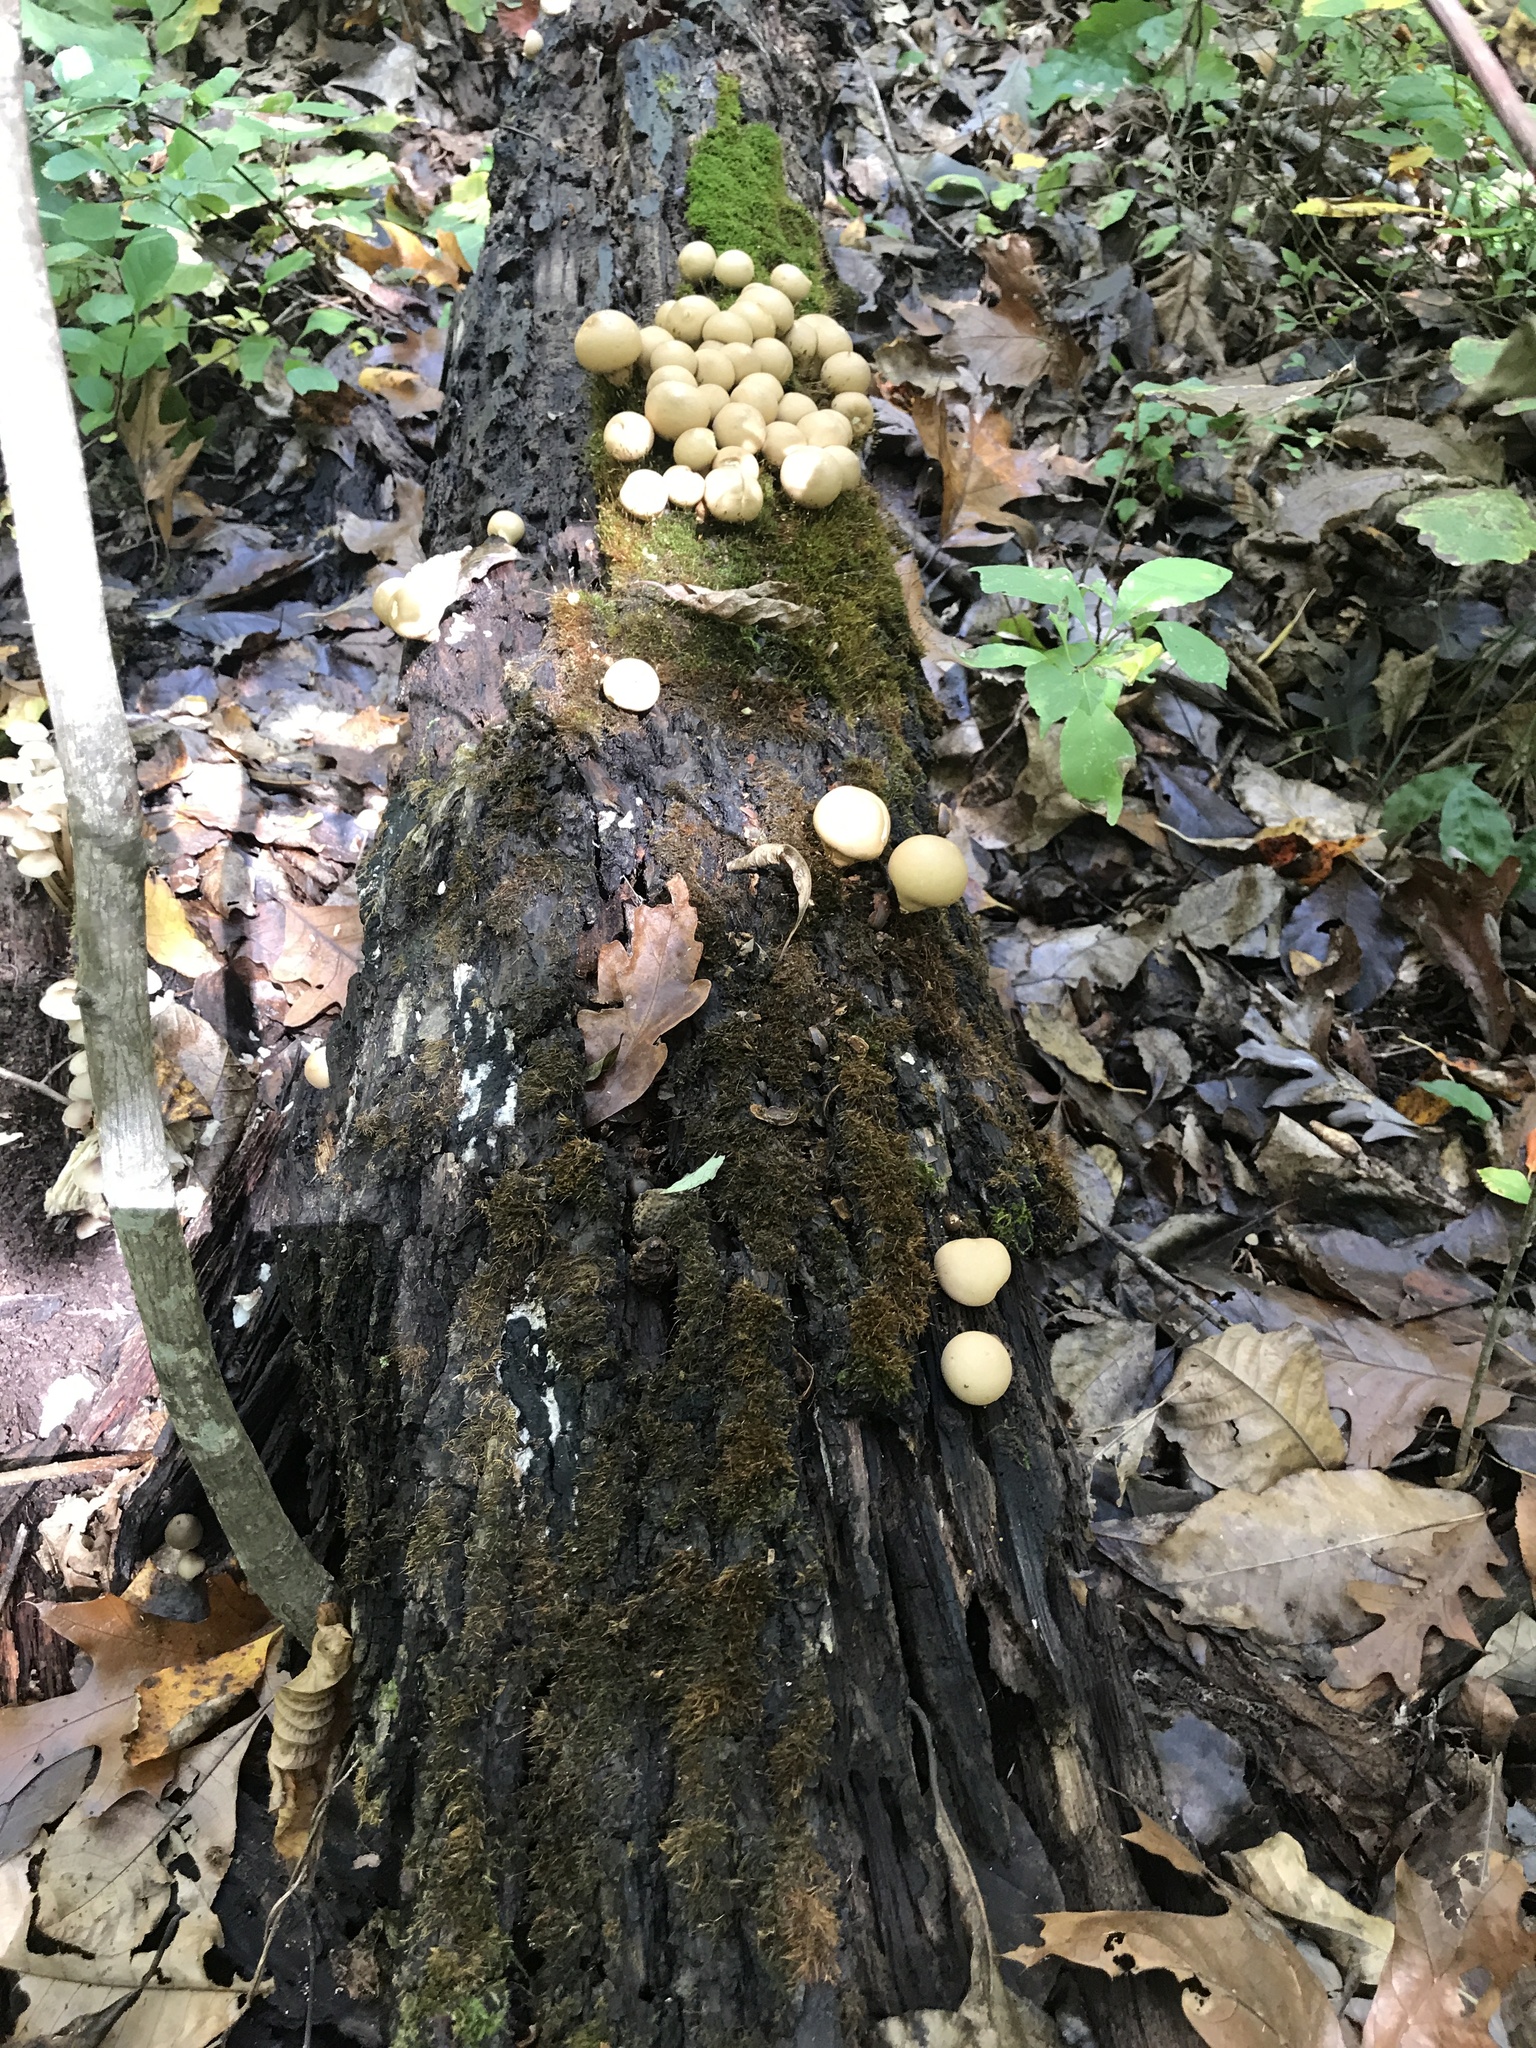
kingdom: Fungi
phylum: Basidiomycota
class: Agaricomycetes
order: Agaricales
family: Lycoperdaceae
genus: Apioperdon
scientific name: Apioperdon pyriforme
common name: Pear-shaped puffball
